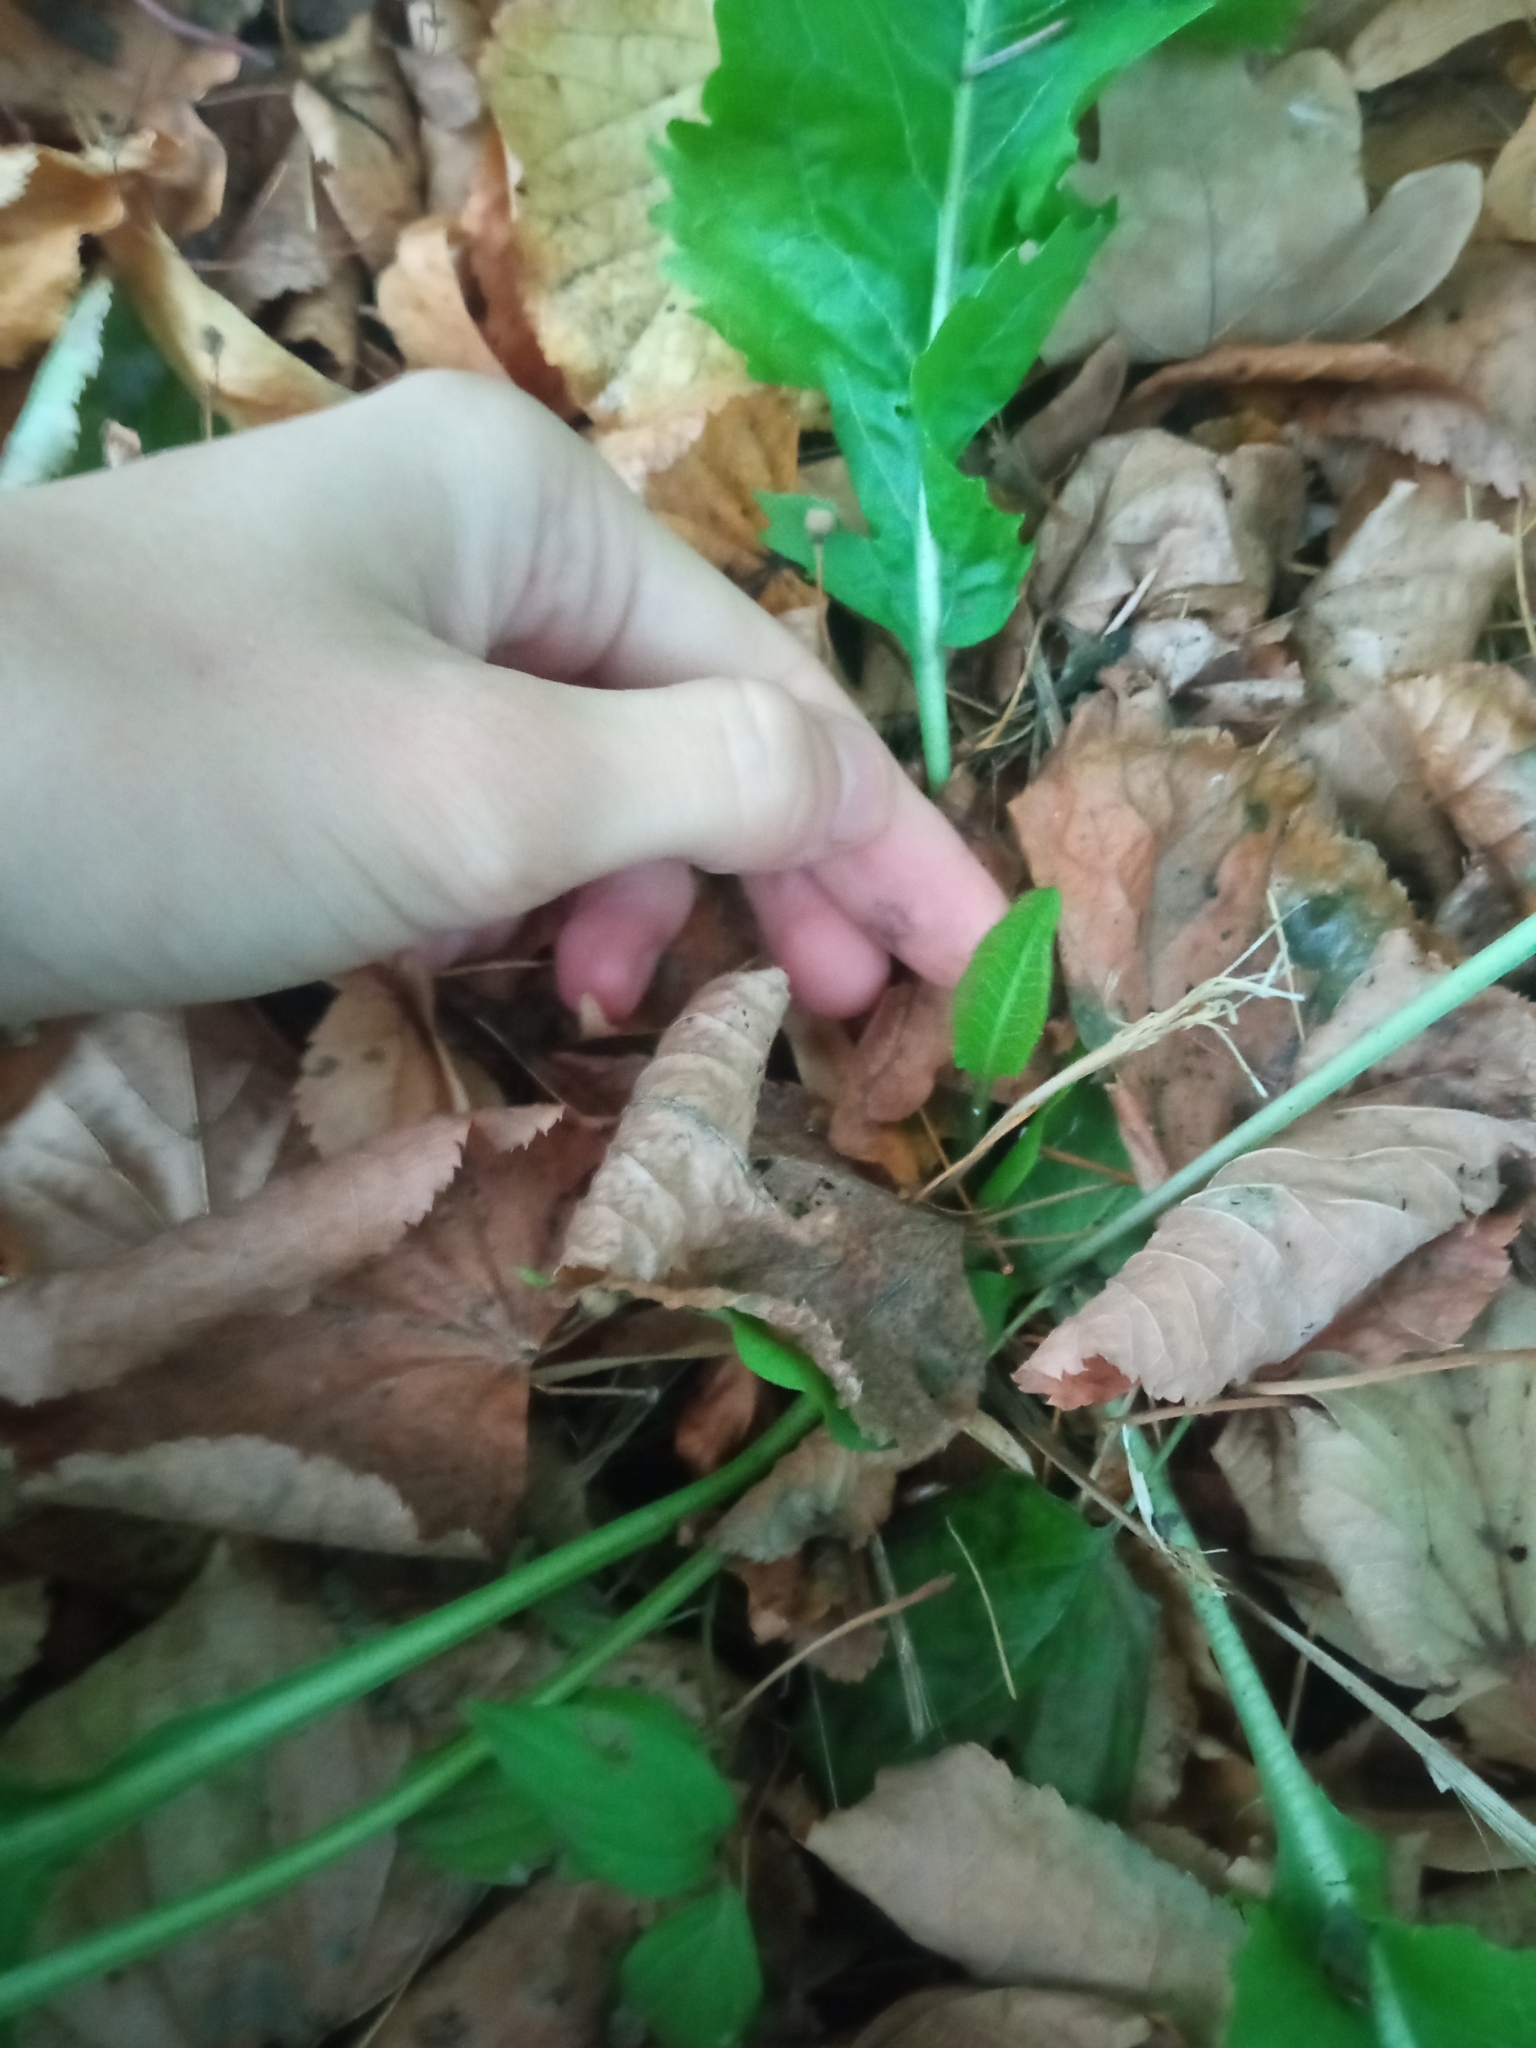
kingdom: Plantae
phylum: Tracheophyta
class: Magnoliopsida
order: Brassicales
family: Brassicaceae
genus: Armoracia
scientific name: Armoracia rusticana
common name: Horseradish
